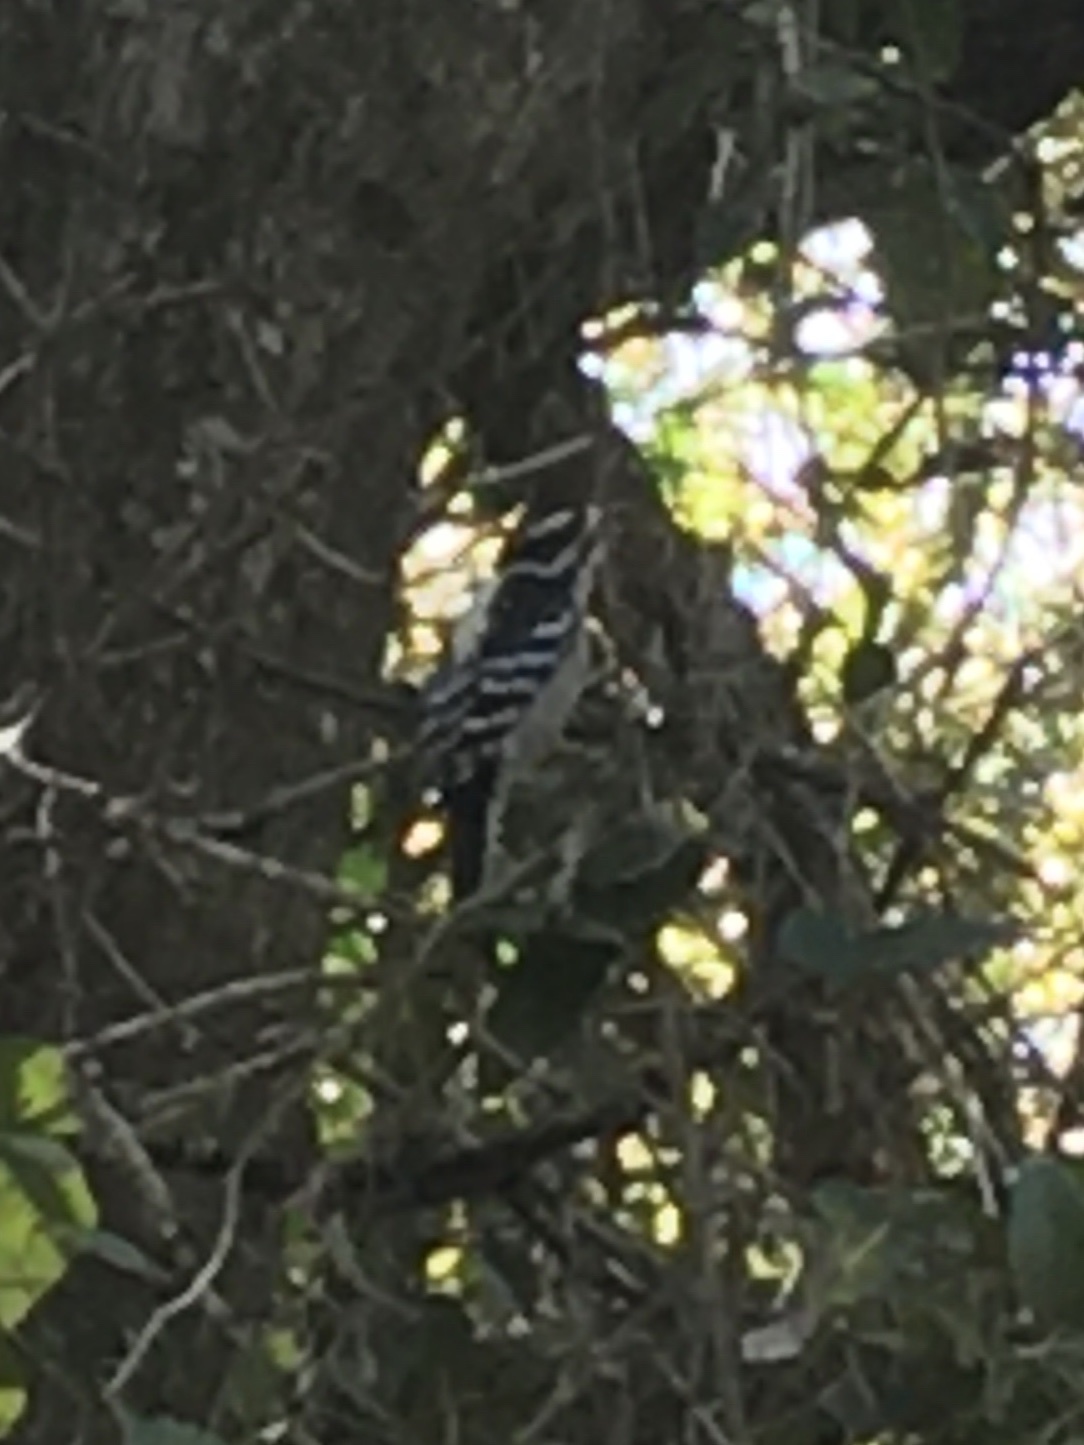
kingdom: Animalia
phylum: Chordata
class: Aves
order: Piciformes
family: Picidae
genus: Dryobates
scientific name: Dryobates pubescens
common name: Downy woodpecker
